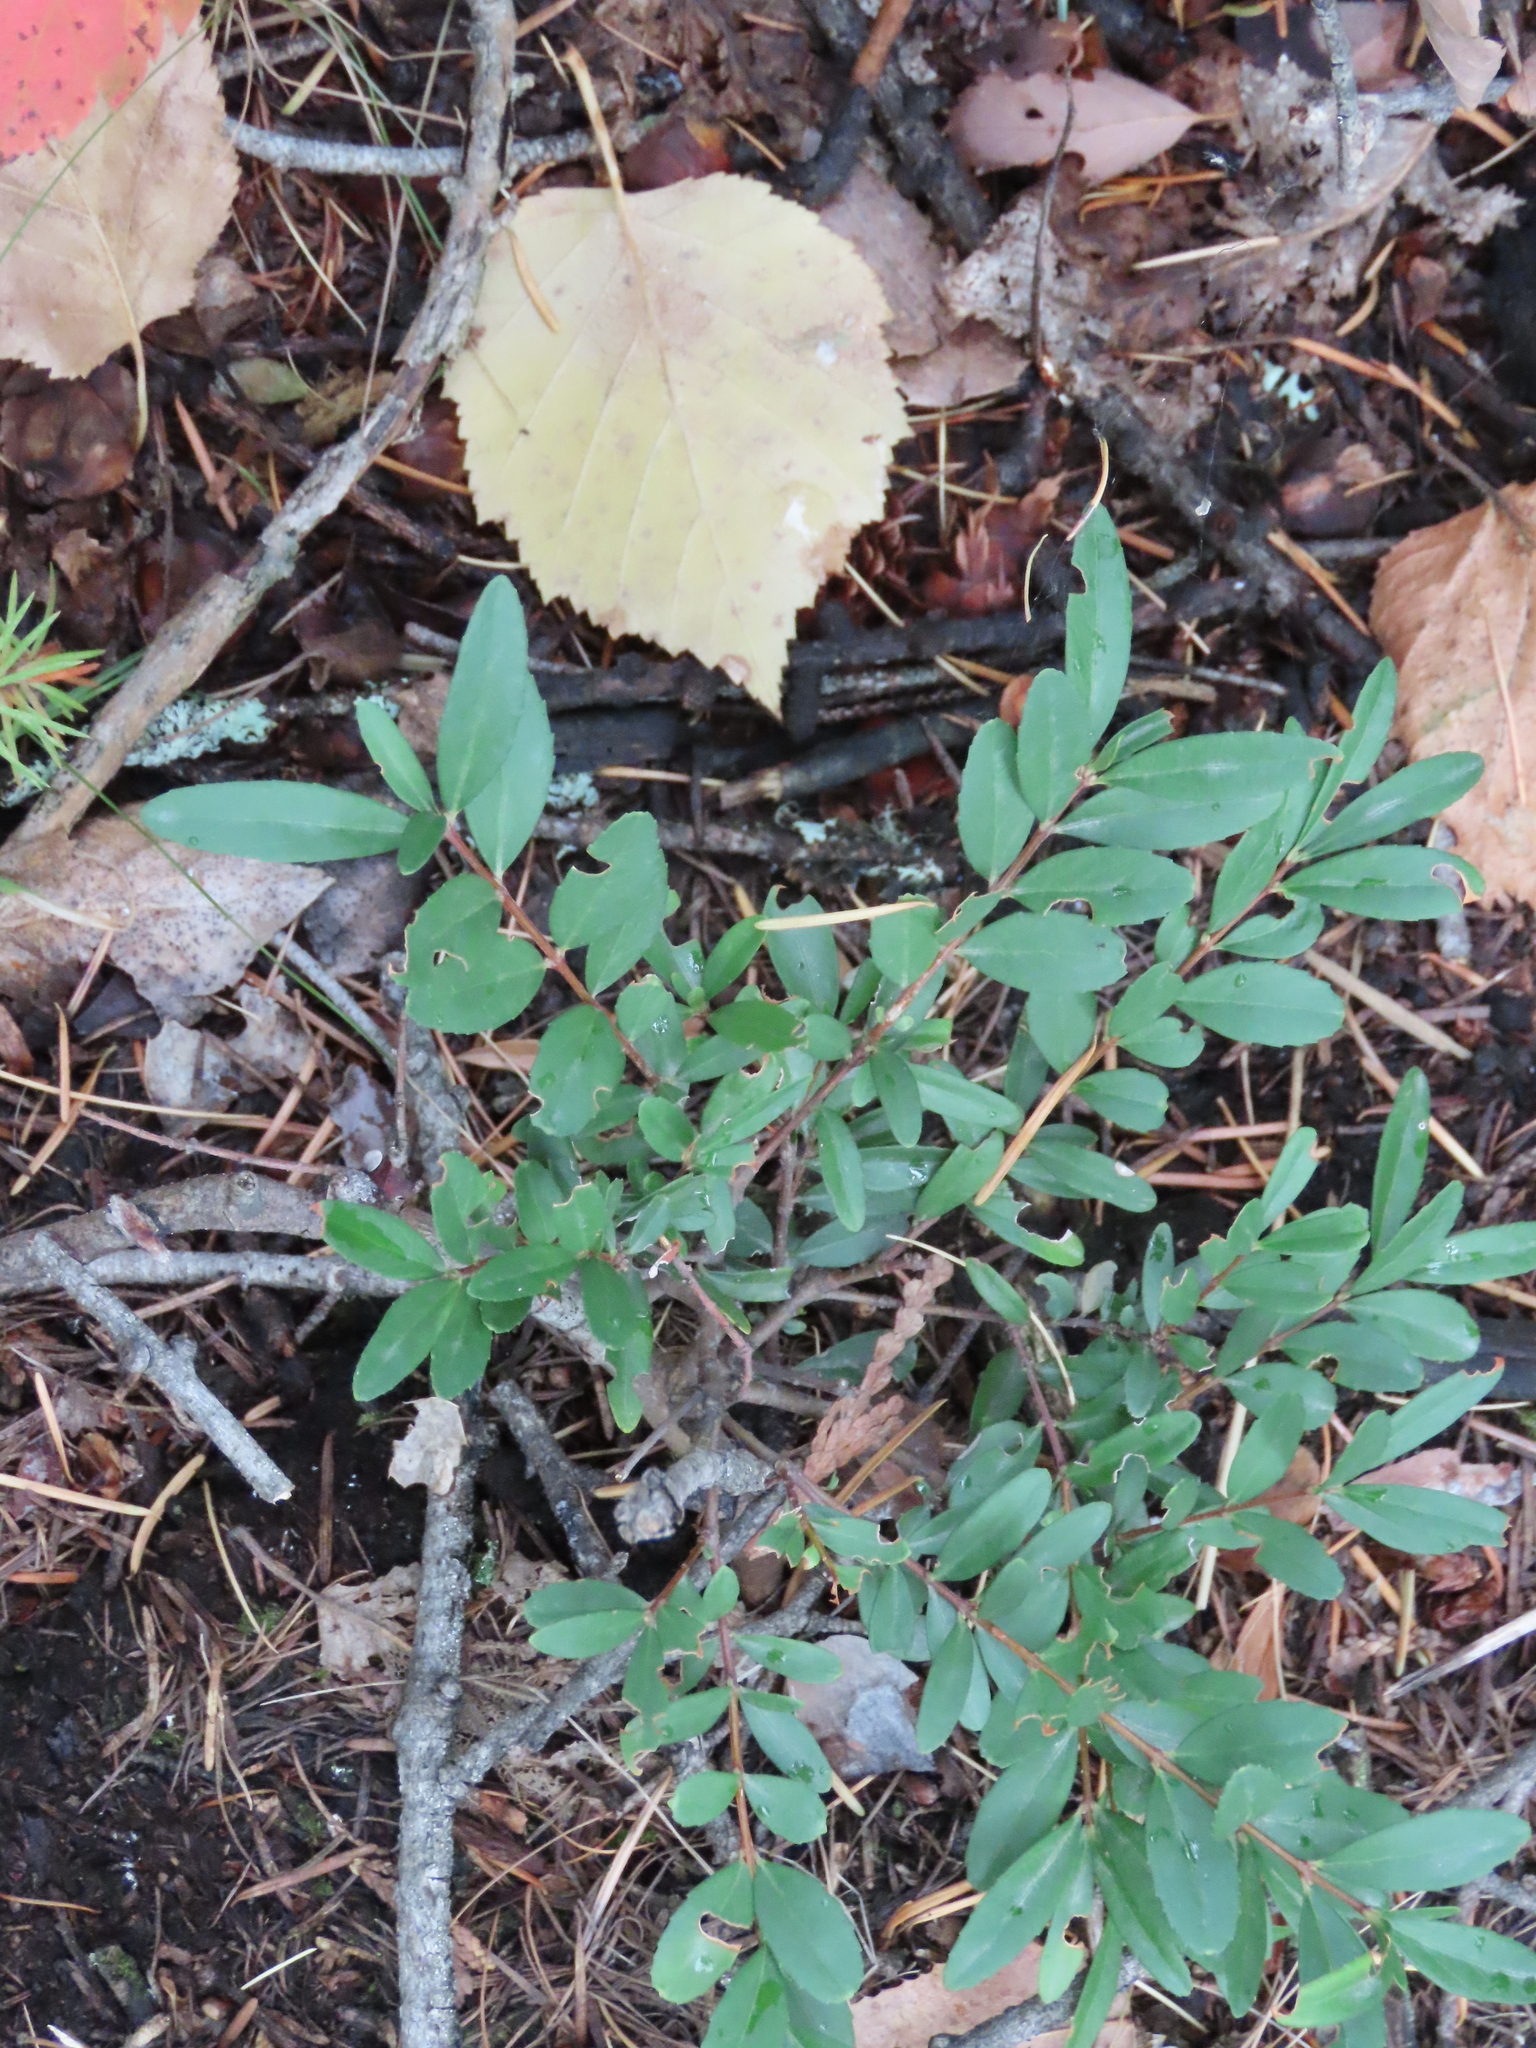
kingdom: Plantae
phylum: Tracheophyta
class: Magnoliopsida
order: Celastrales
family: Celastraceae
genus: Paxistima
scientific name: Paxistima myrsinites
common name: Mountain-lover
